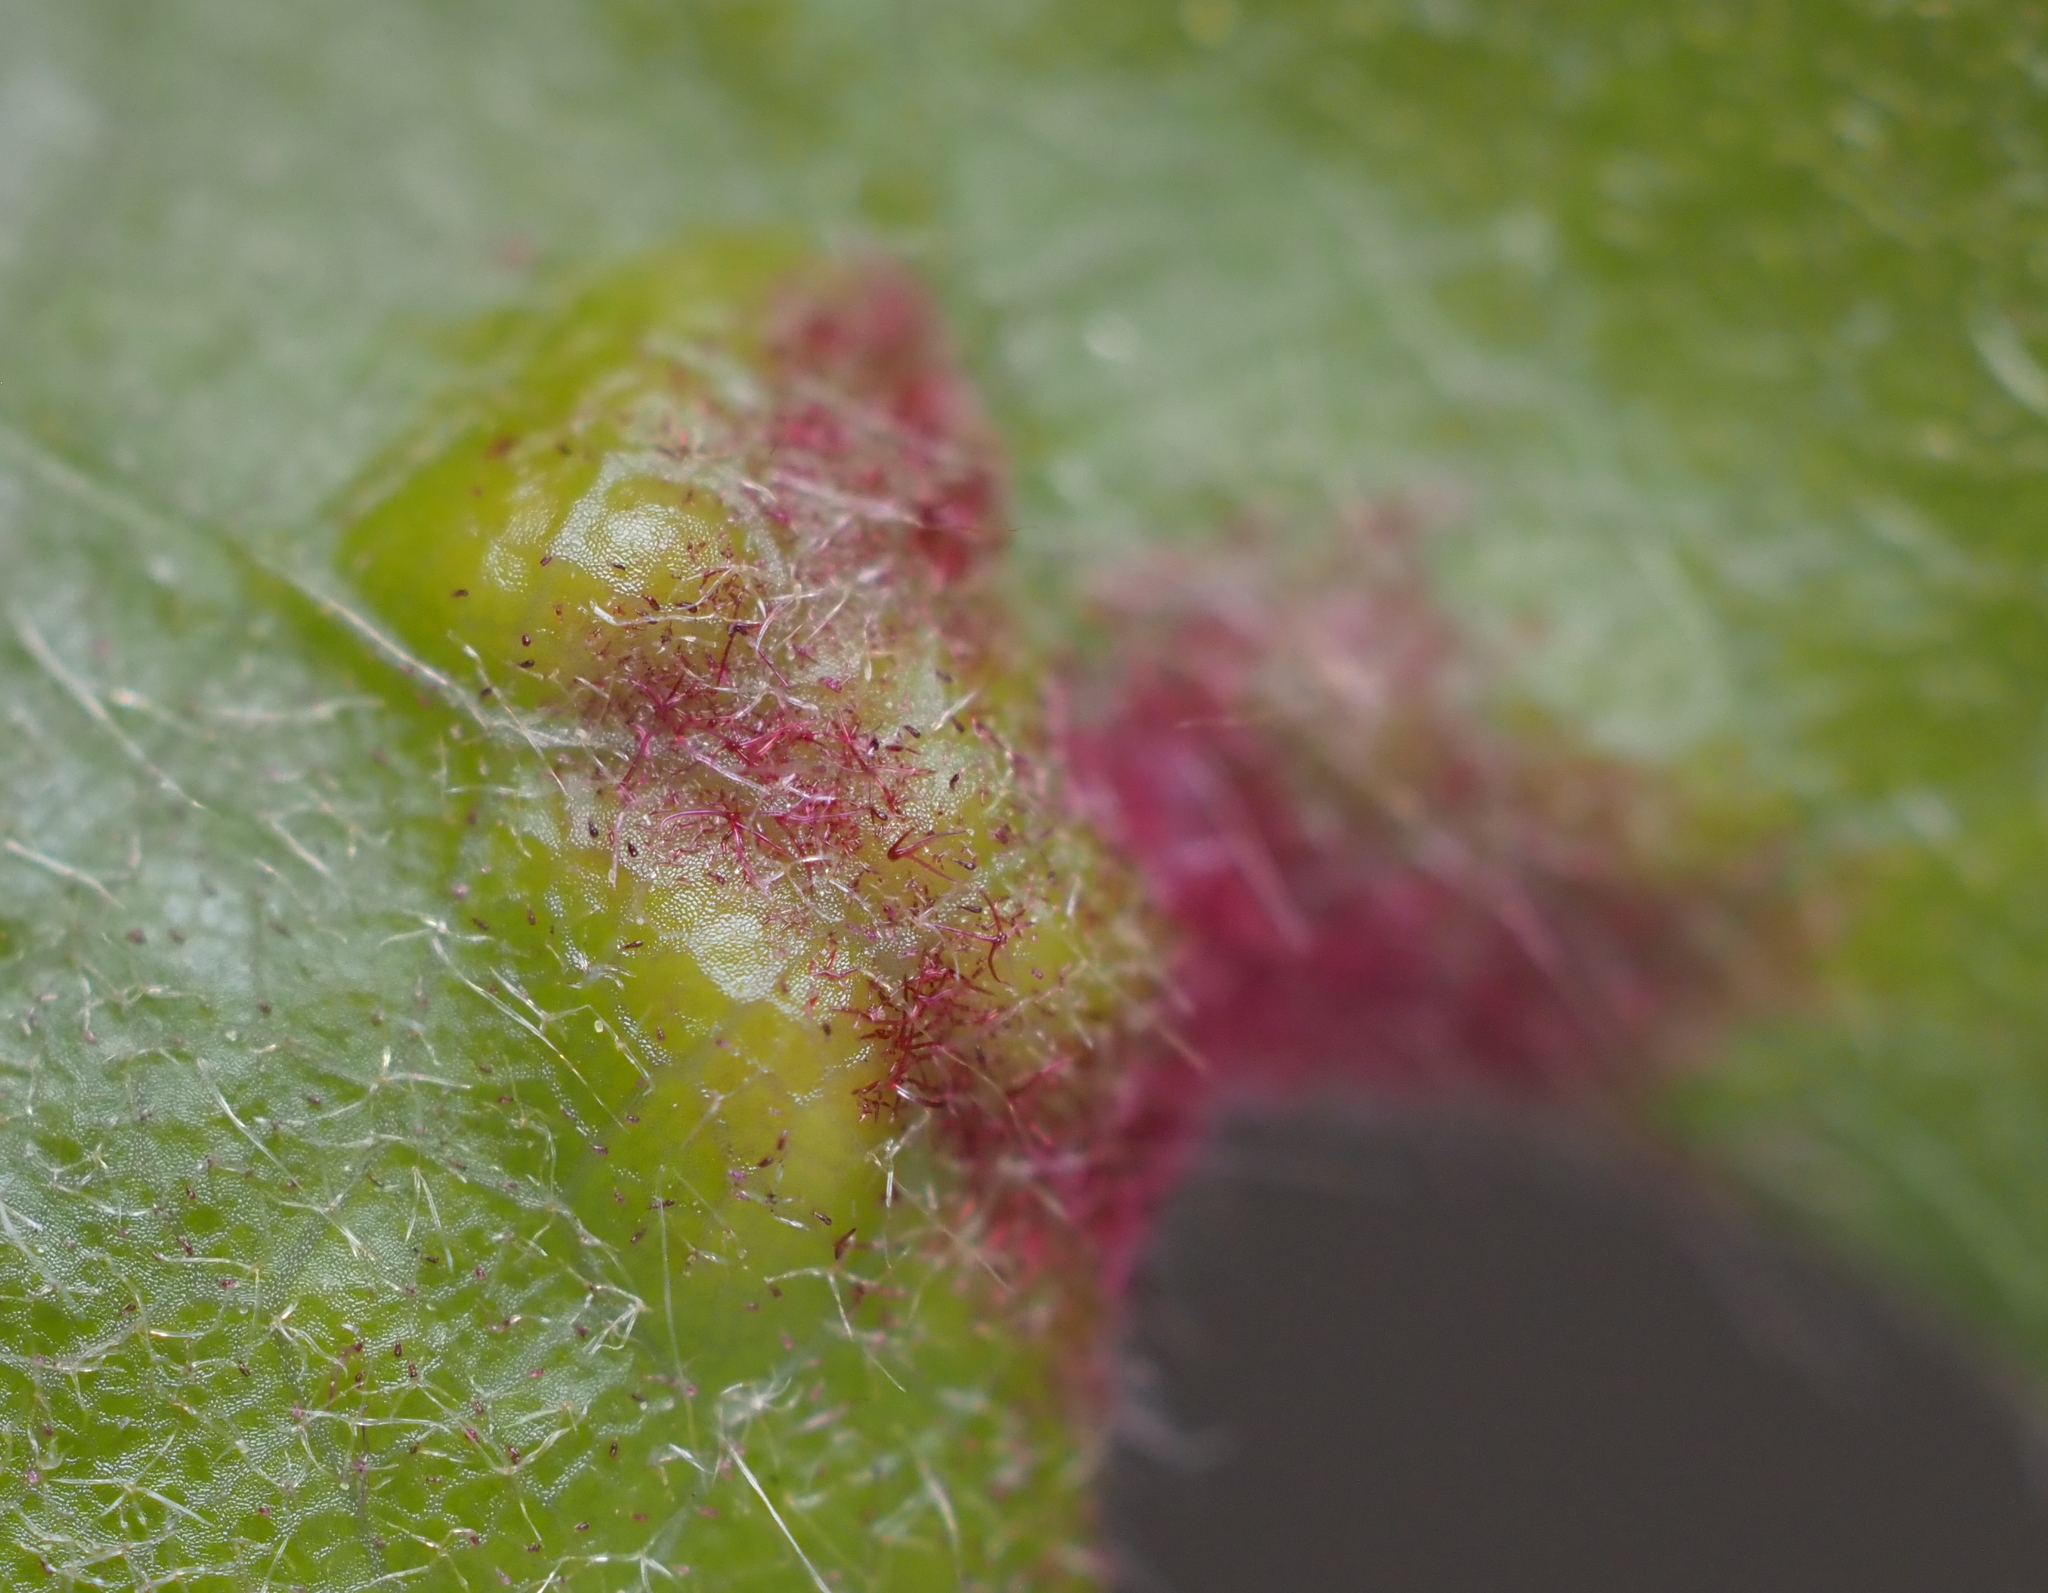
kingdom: Animalia
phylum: Arthropoda
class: Arachnida
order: Trombidiformes
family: Eriophyidae
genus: Aceria
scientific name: Aceria
